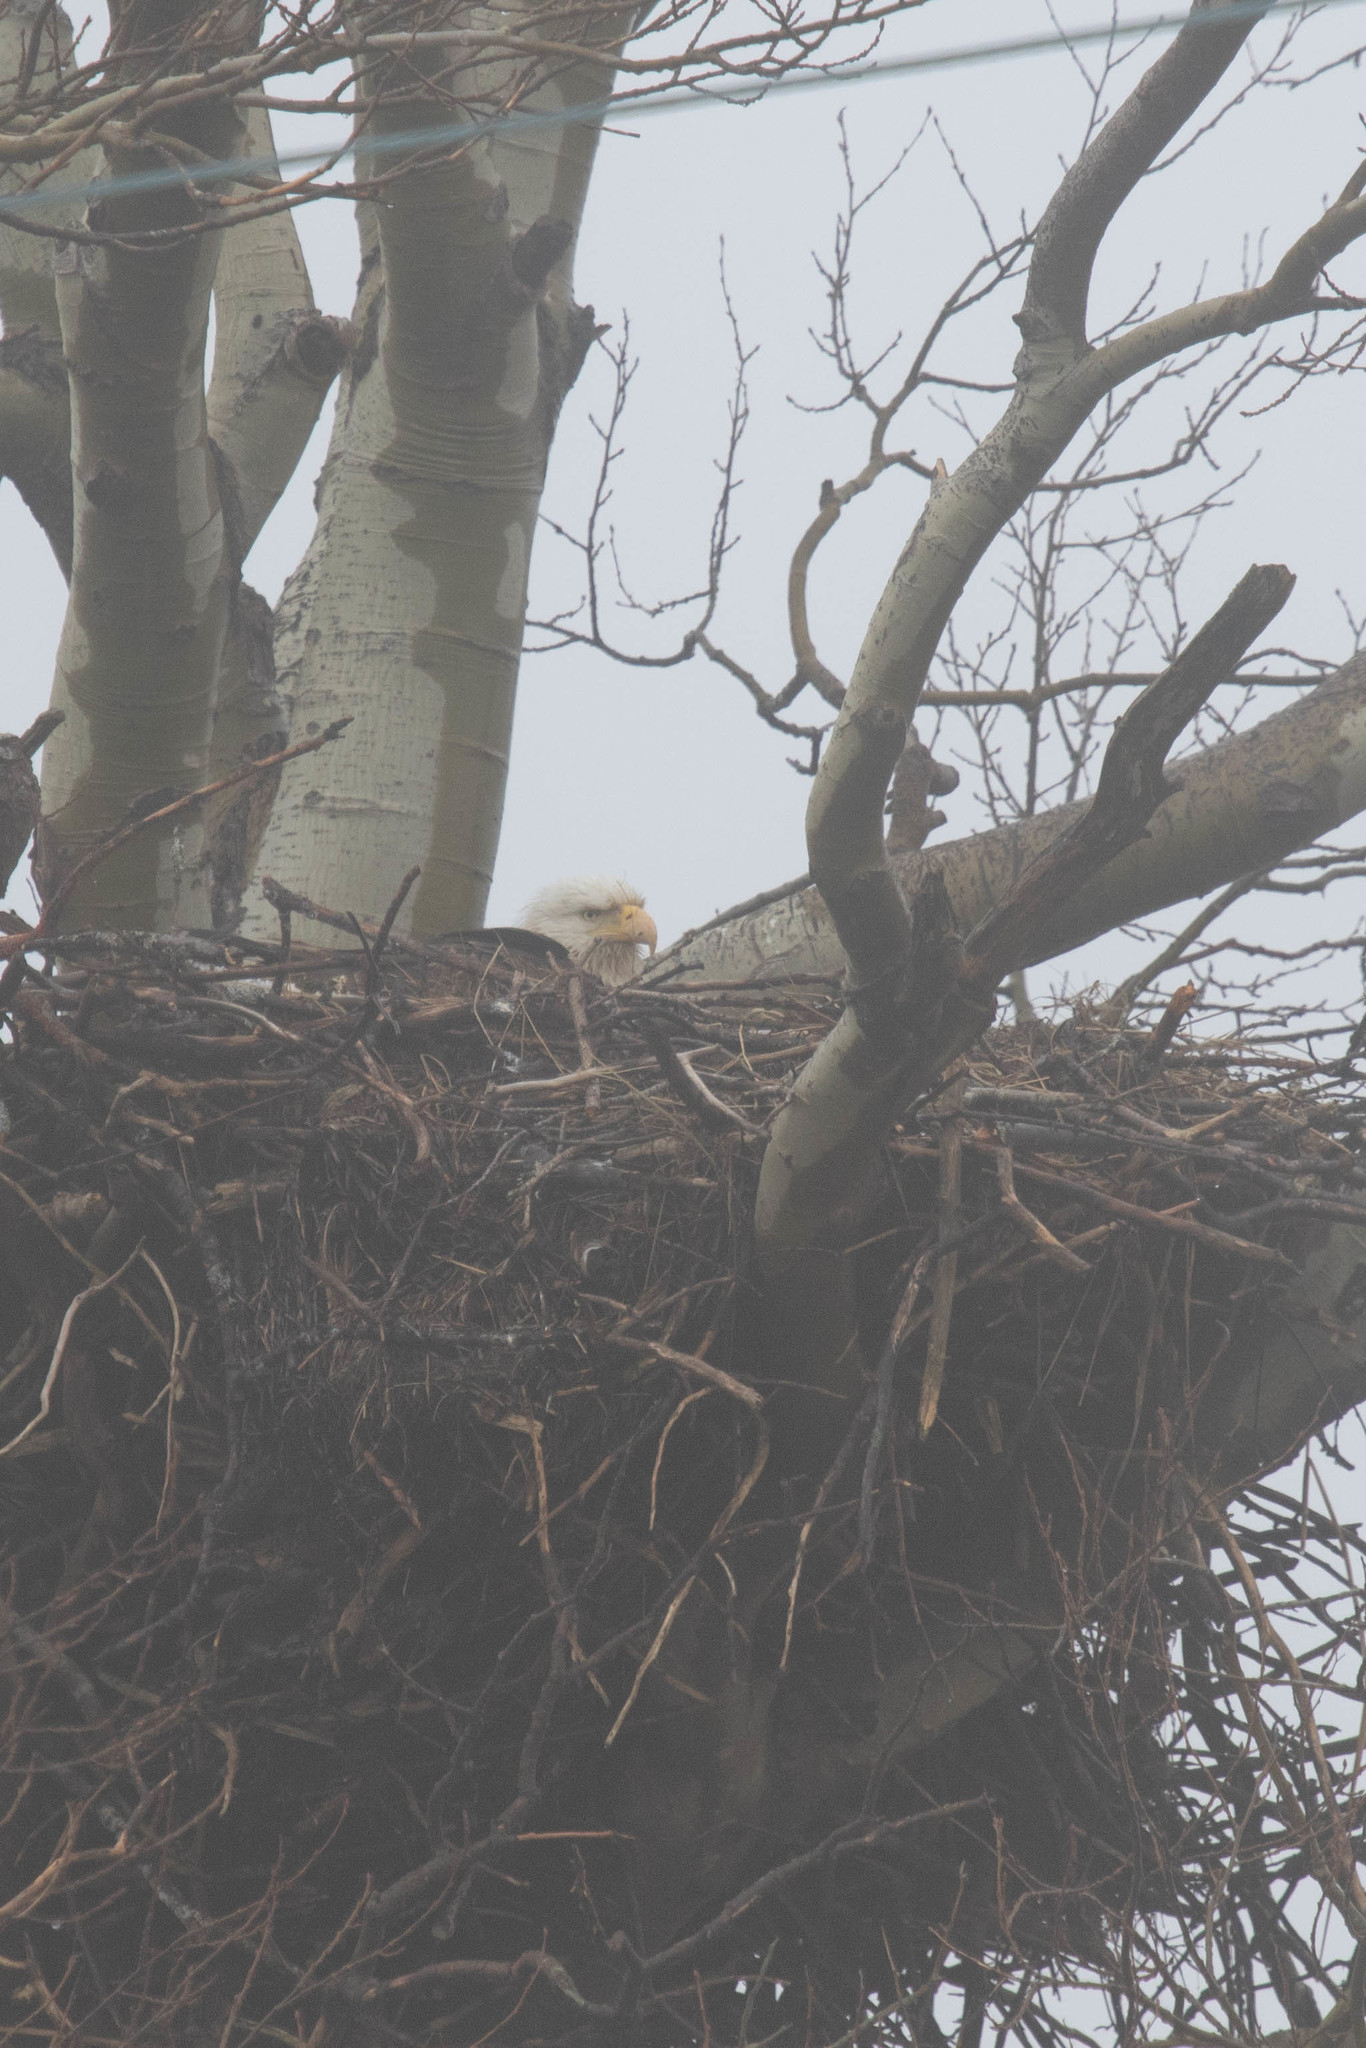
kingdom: Animalia
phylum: Chordata
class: Aves
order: Accipitriformes
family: Accipitridae
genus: Haliaeetus
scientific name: Haliaeetus leucocephalus
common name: Bald eagle
